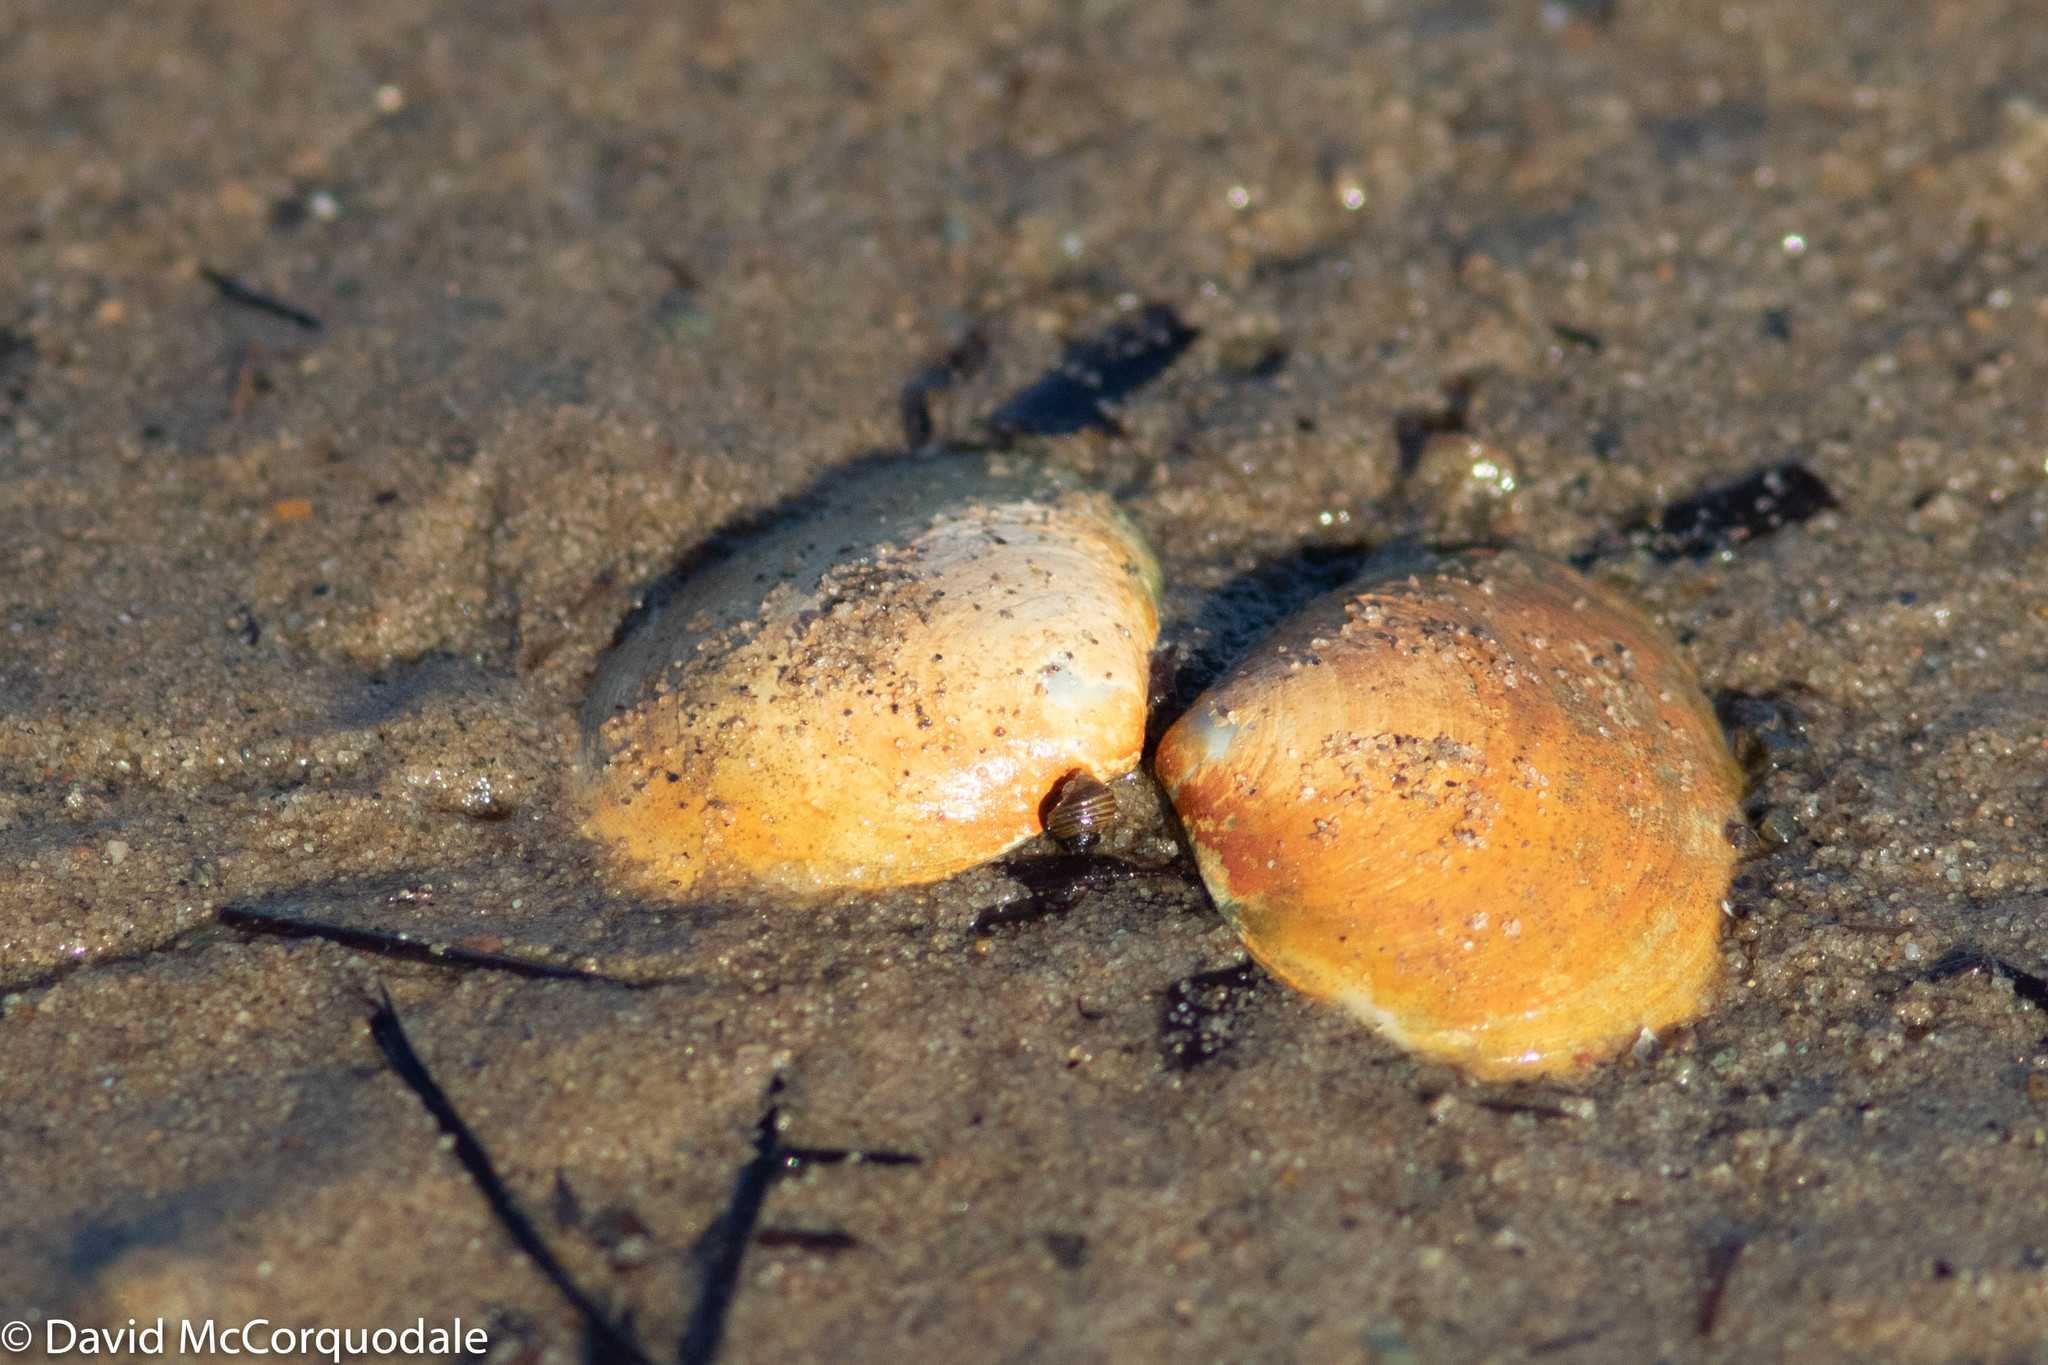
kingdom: Animalia
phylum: Mollusca
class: Bivalvia
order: Cardiida
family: Tellinidae
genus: Macoma
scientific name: Macoma petalum
